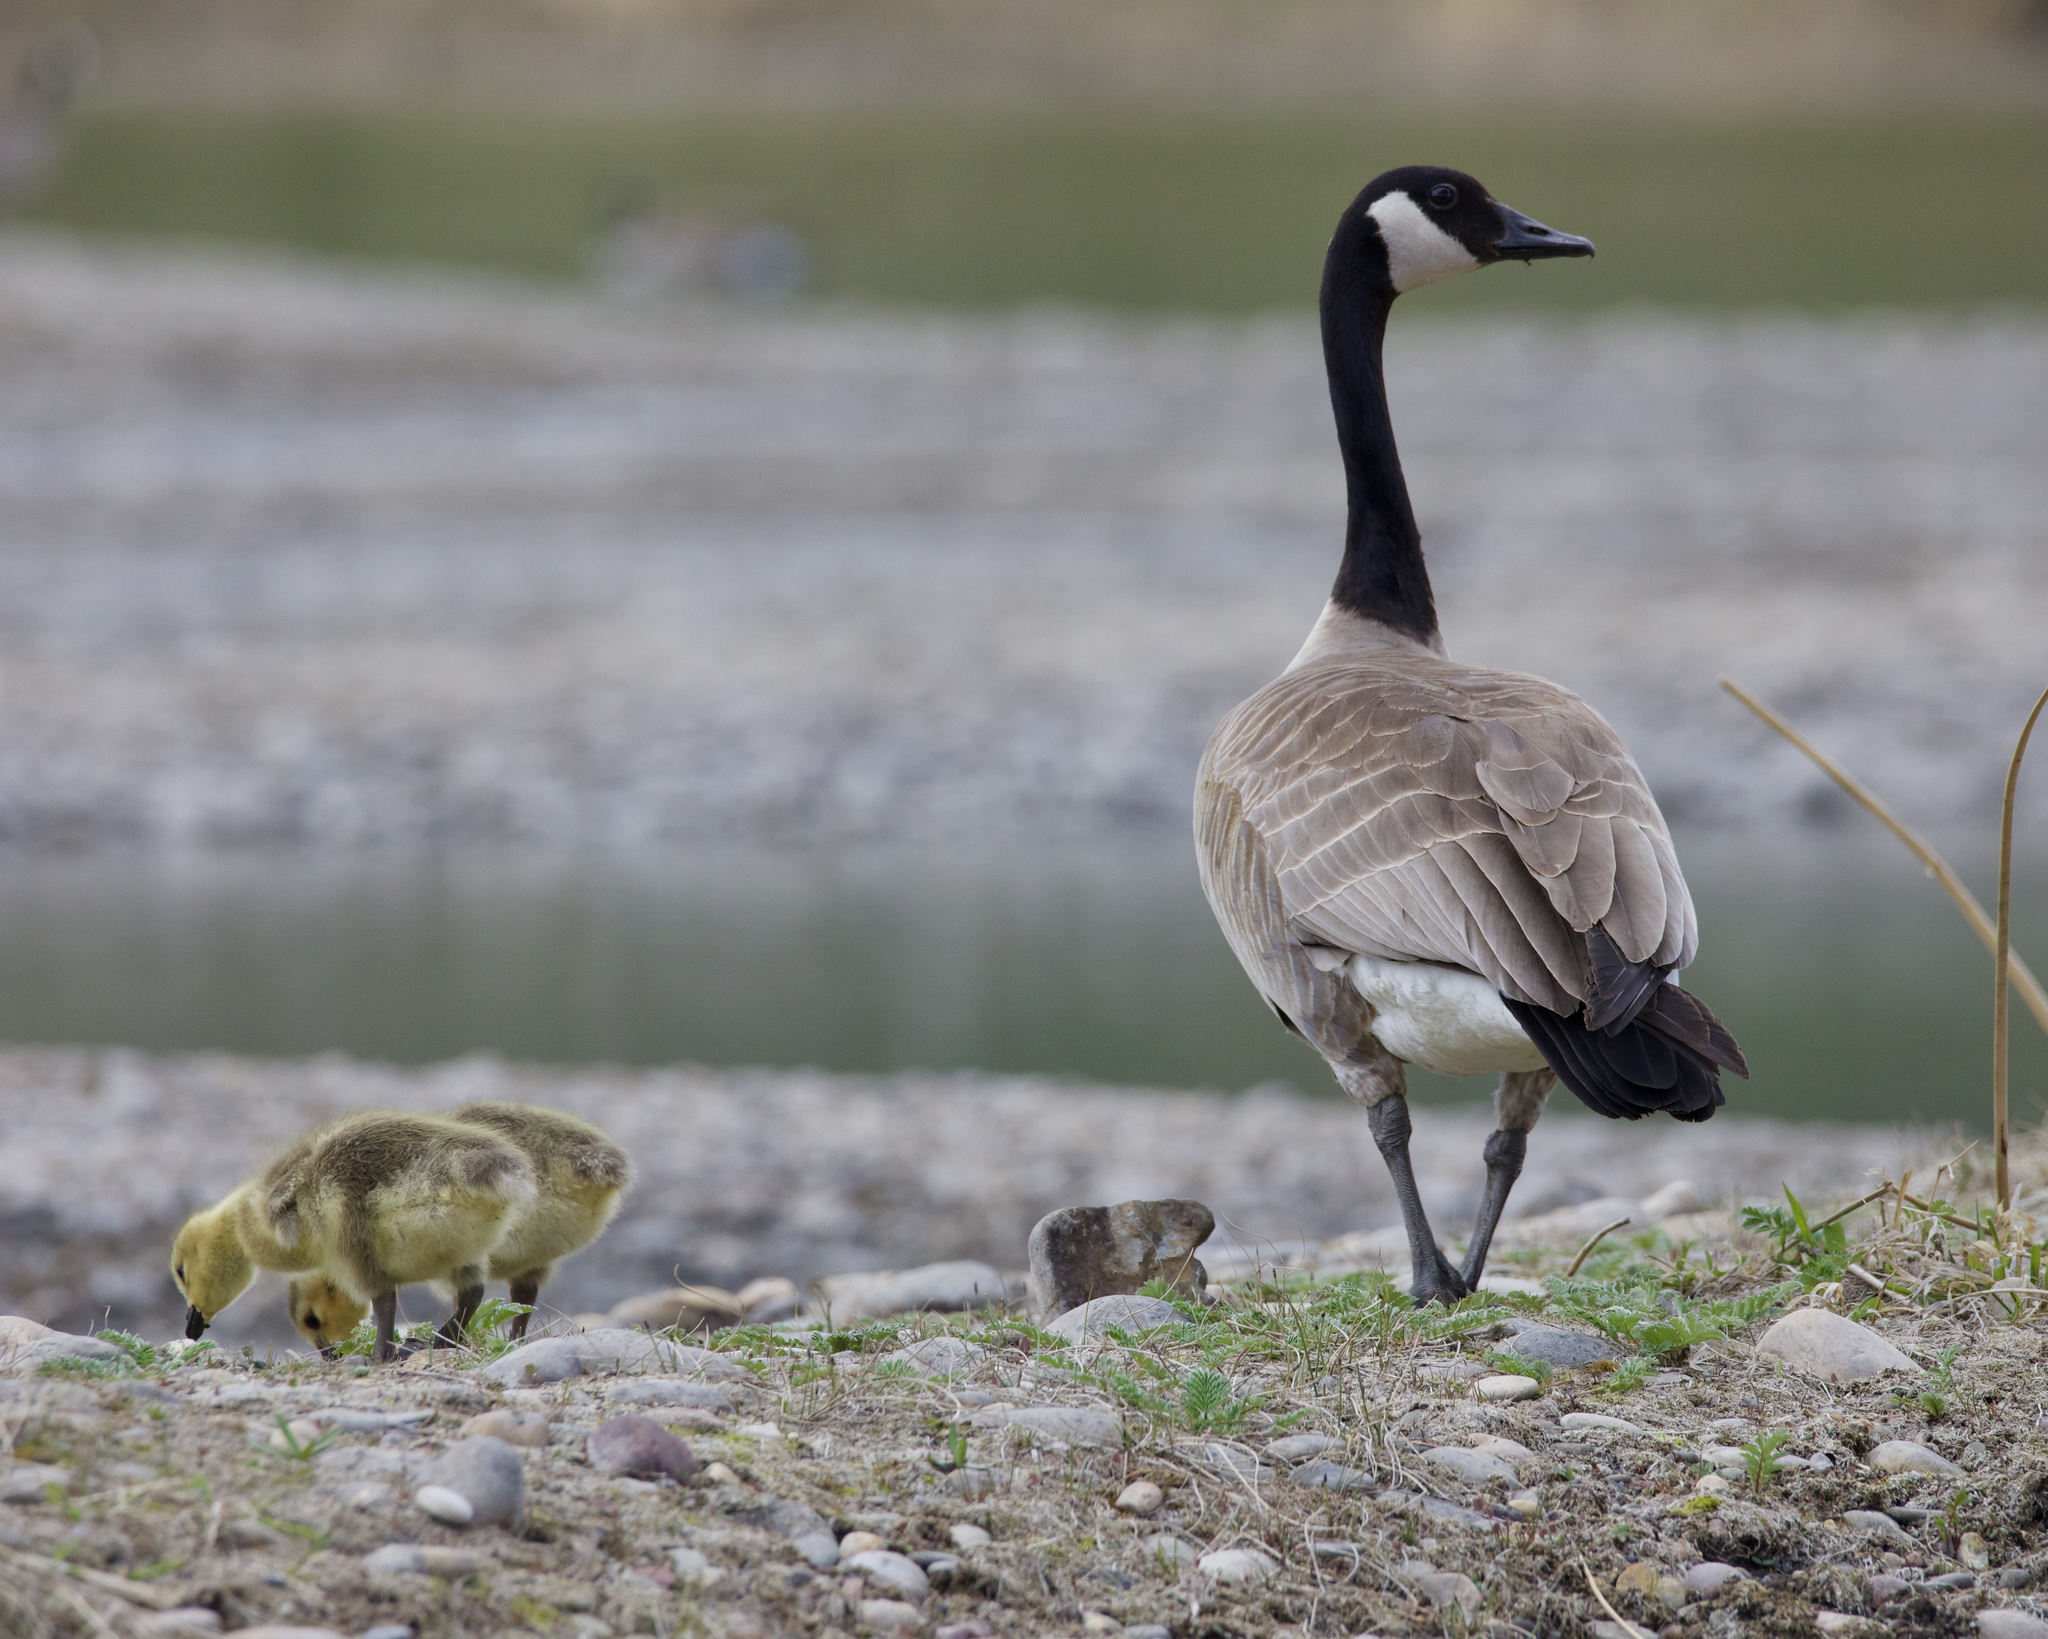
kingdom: Animalia
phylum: Chordata
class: Aves
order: Anseriformes
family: Anatidae
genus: Branta
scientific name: Branta canadensis
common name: Canada goose
